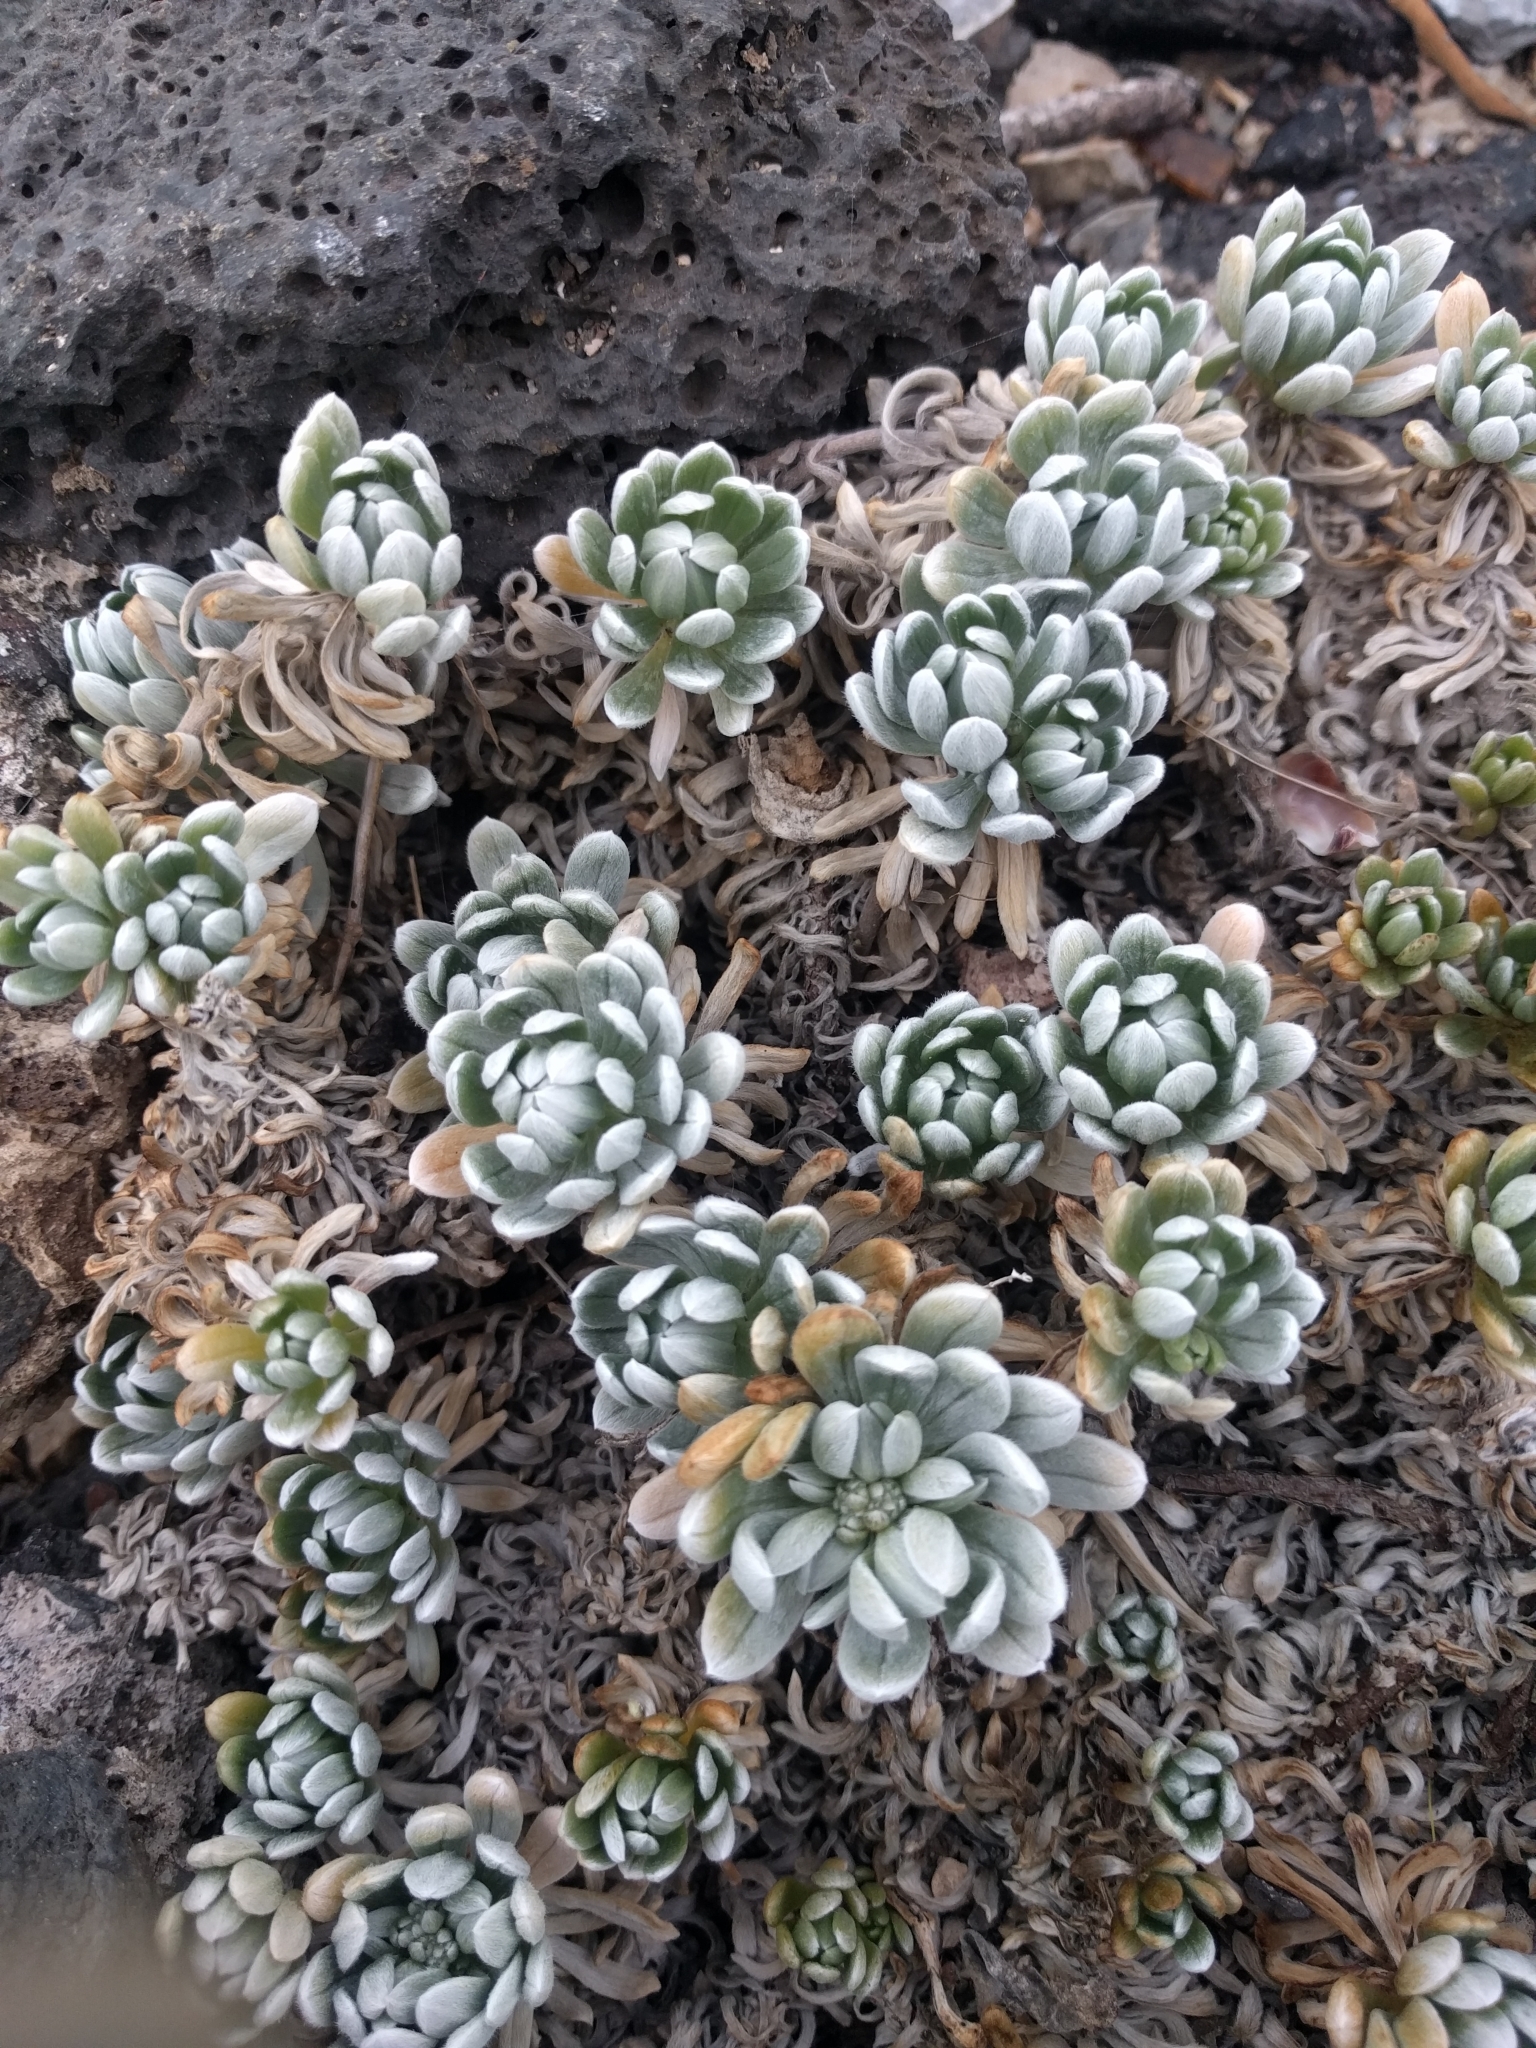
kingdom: Plantae
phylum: Tracheophyta
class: Magnoliopsida
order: Boraginales
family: Heliotropiaceae
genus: Heliotropium
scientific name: Heliotropium anomalum
